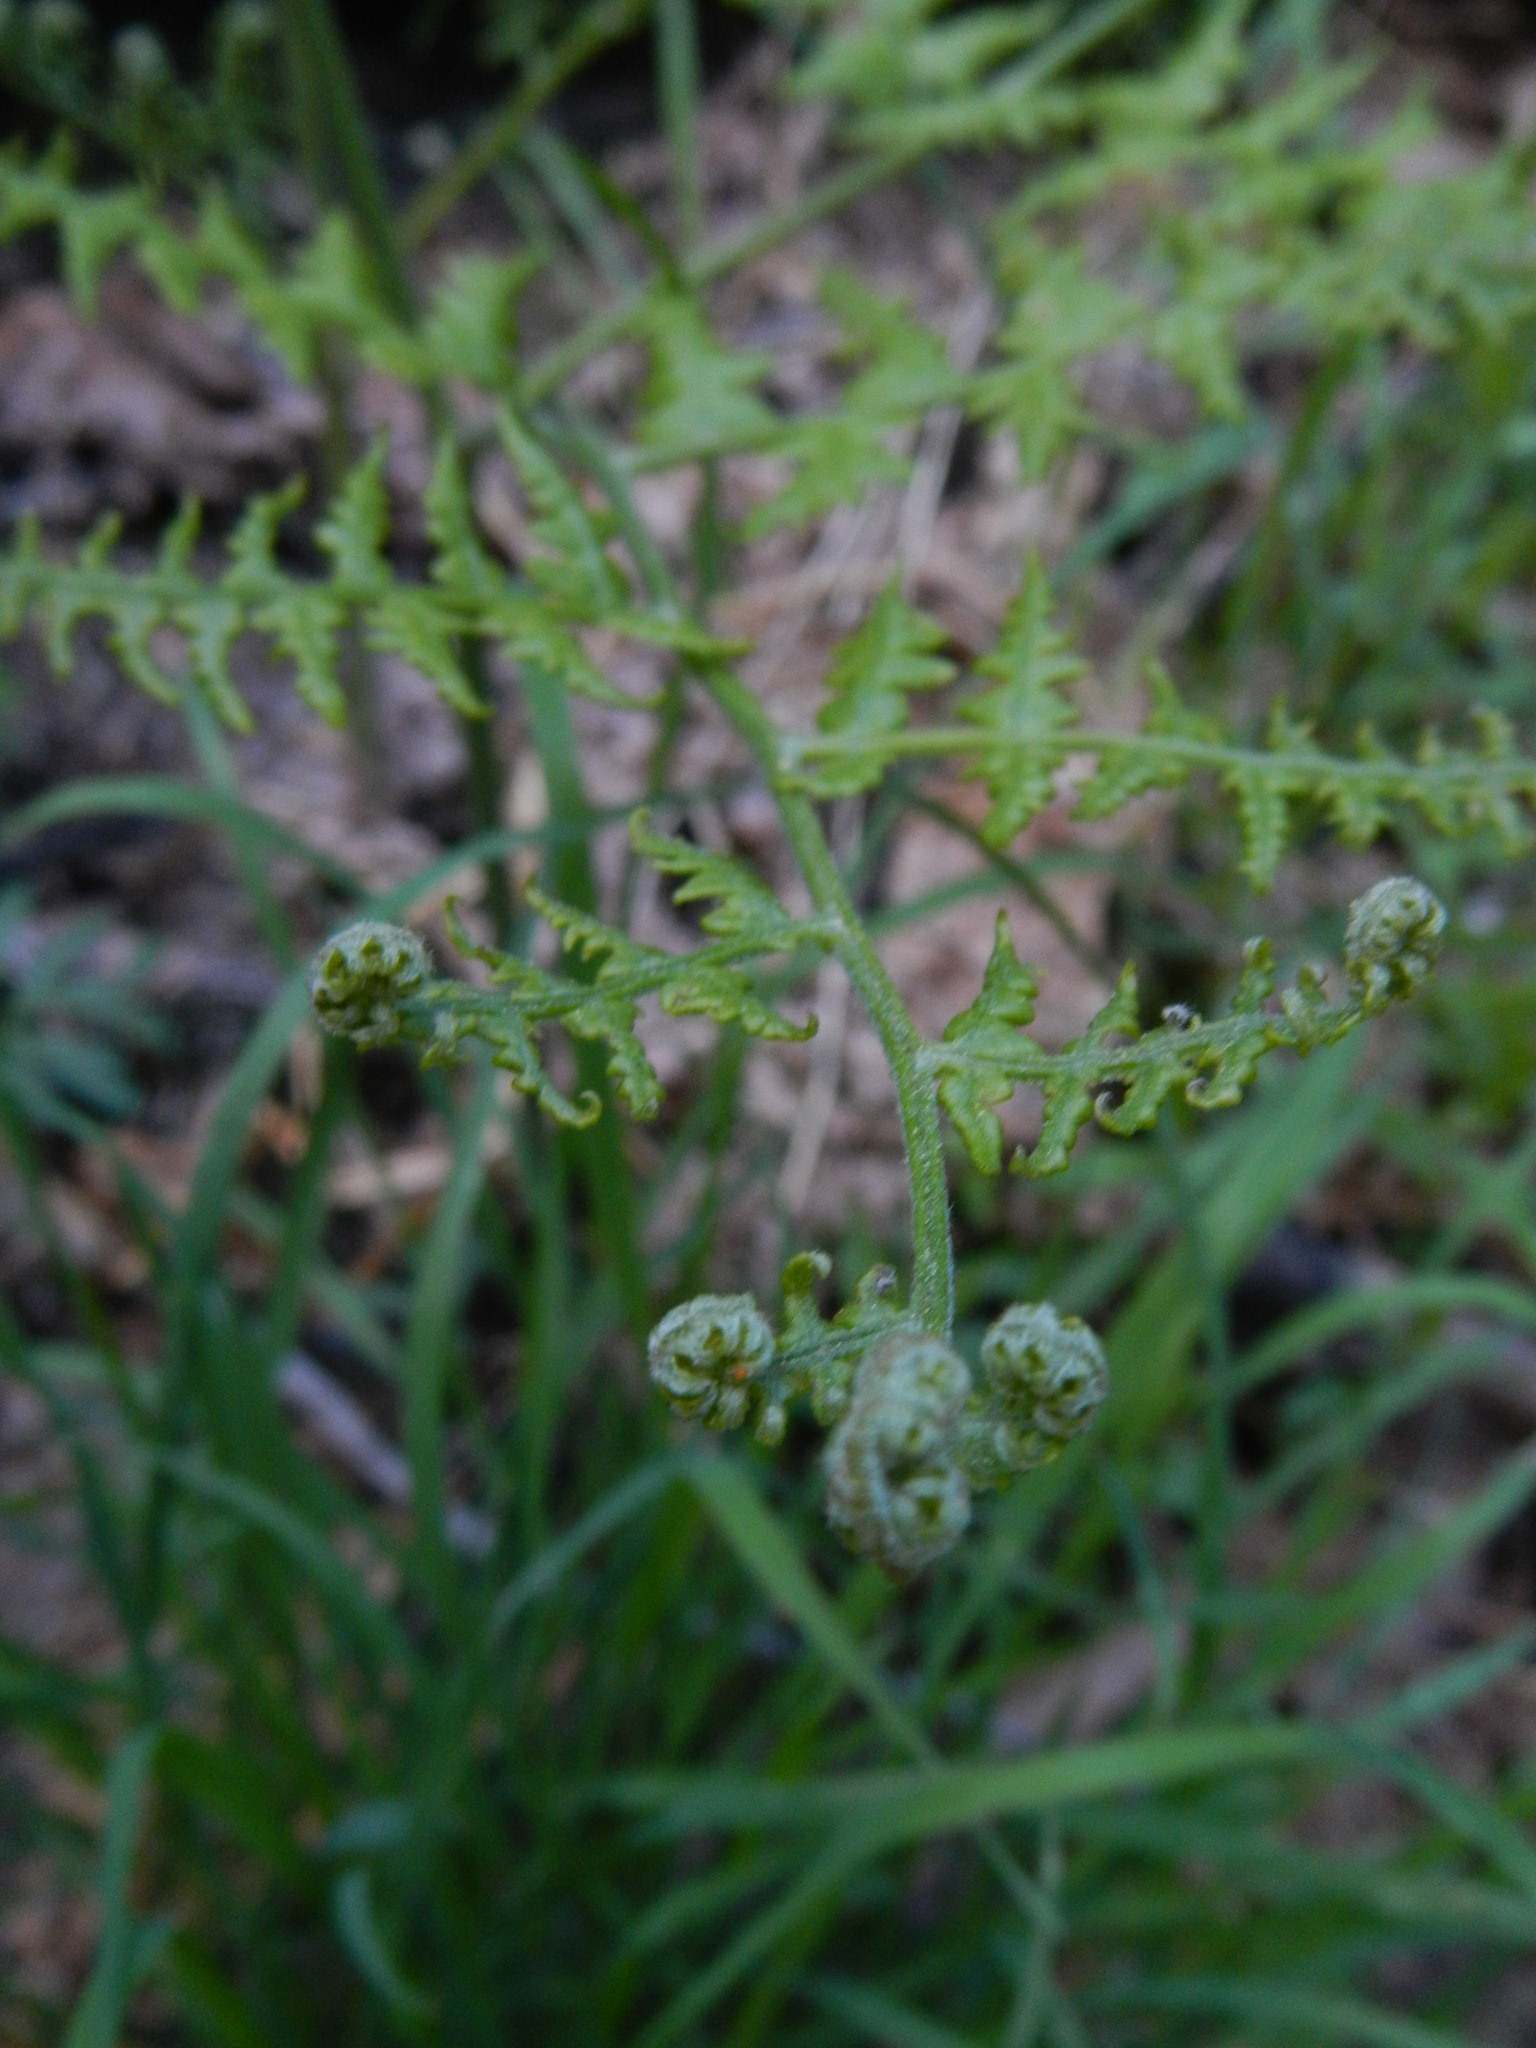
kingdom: Plantae
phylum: Tracheophyta
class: Polypodiopsida
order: Polypodiales
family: Dennstaedtiaceae
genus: Pteridium
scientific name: Pteridium aquilinum
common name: Bracken
